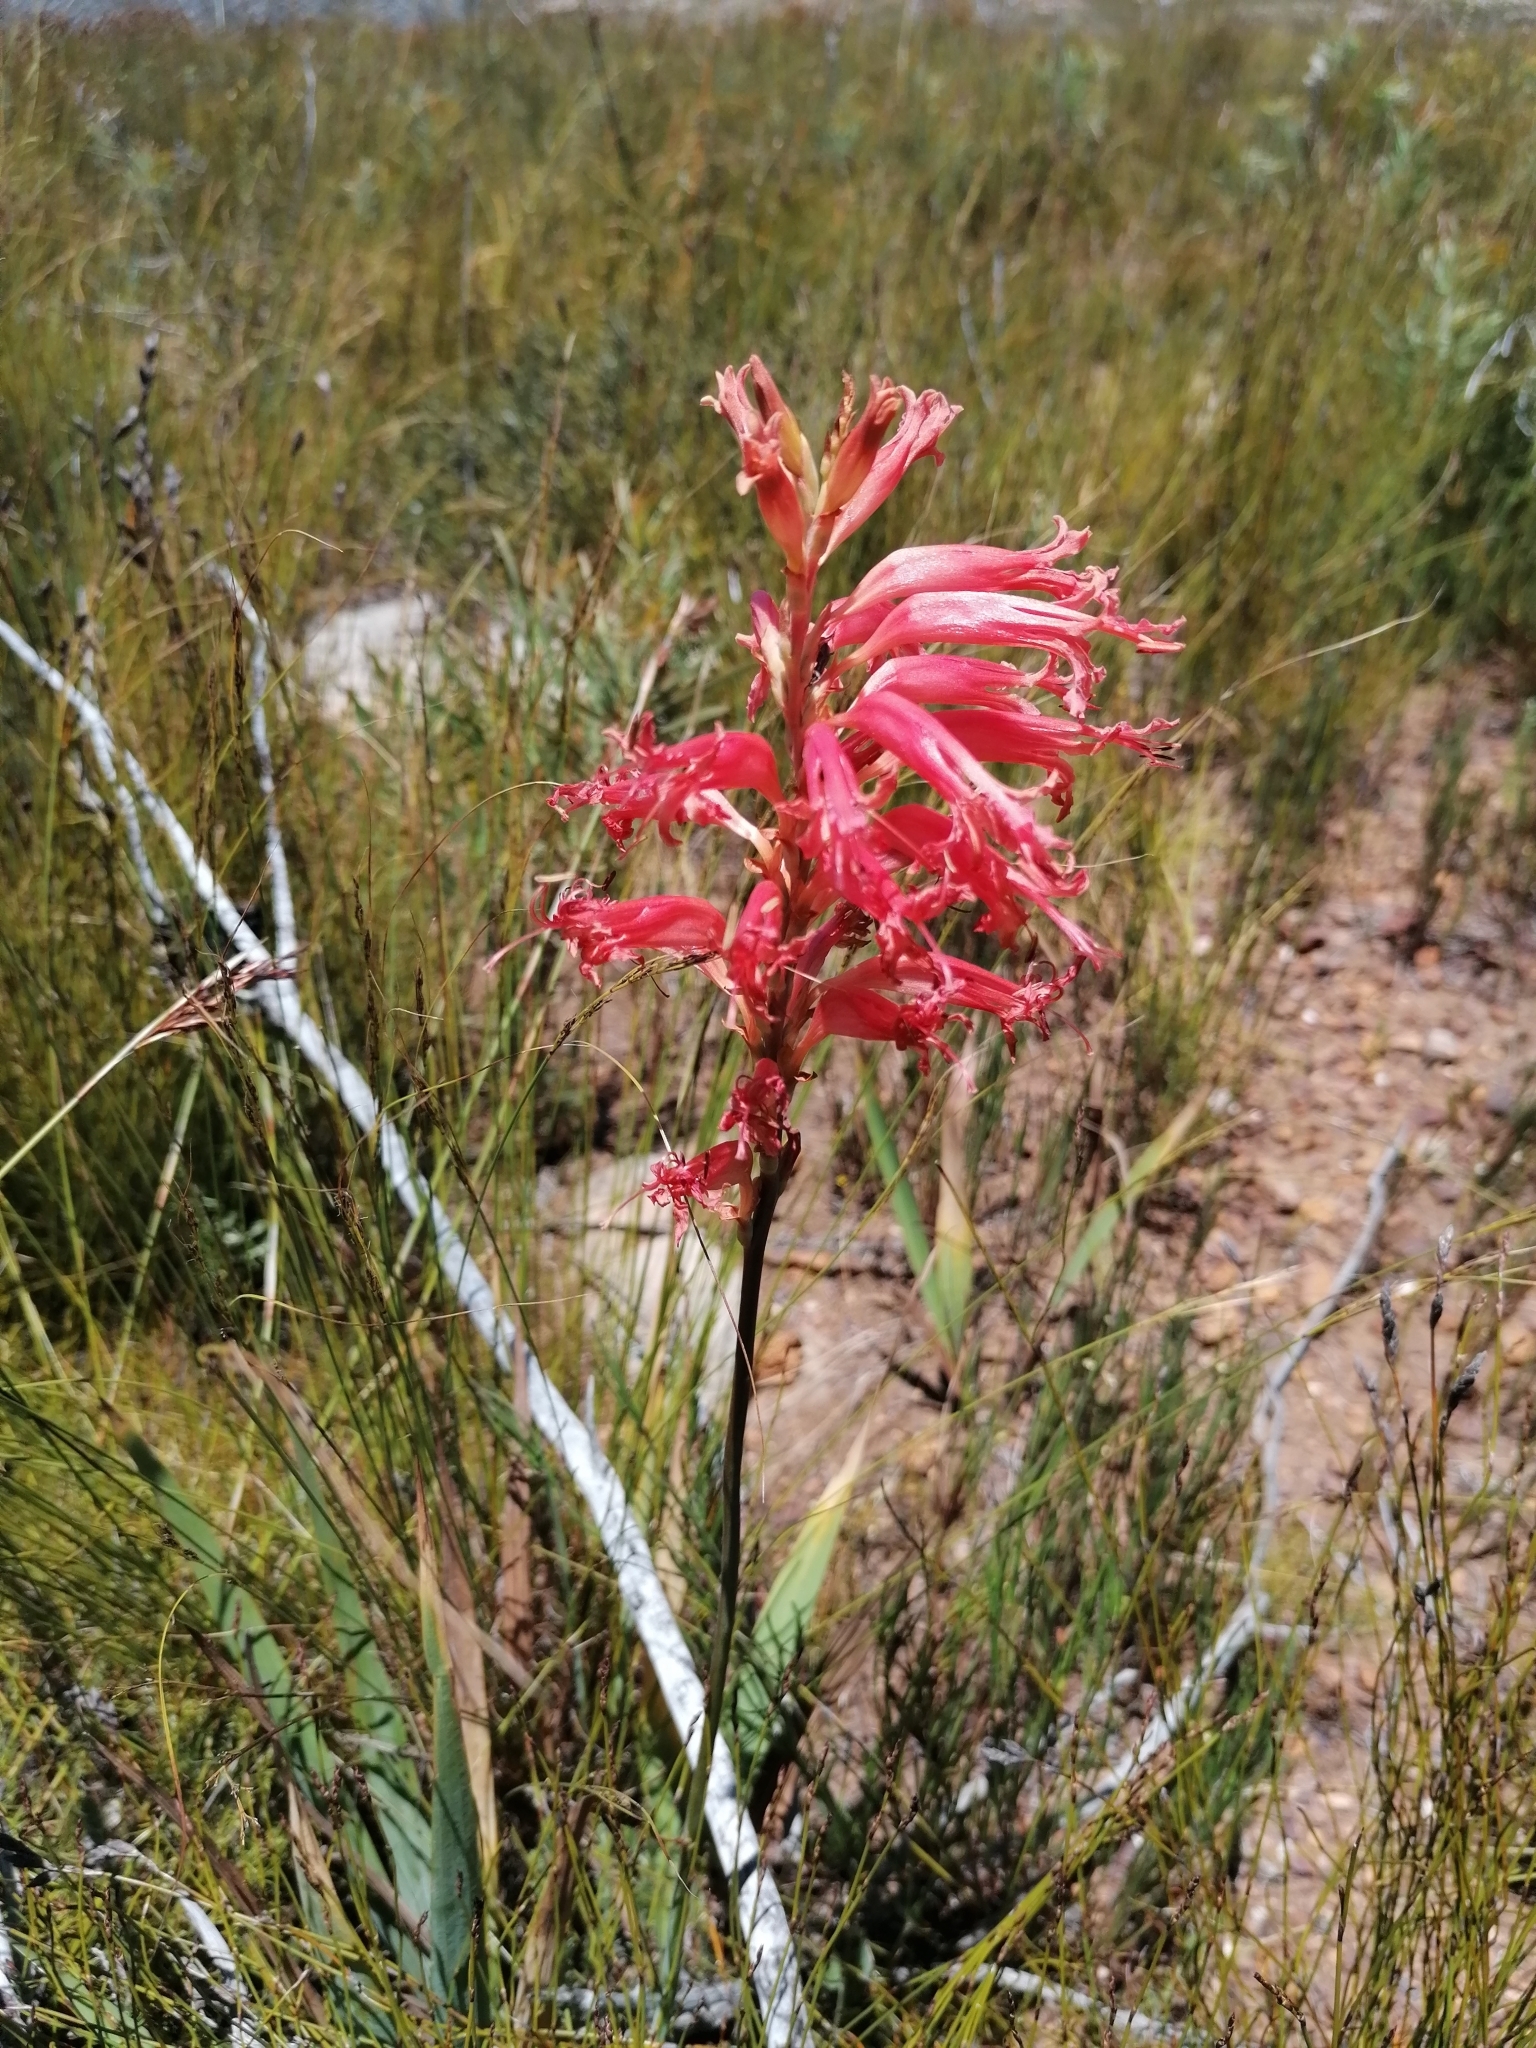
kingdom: Plantae
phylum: Tracheophyta
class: Liliopsida
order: Asparagales
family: Iridaceae
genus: Tritoniopsis
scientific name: Tritoniopsis antholyza
